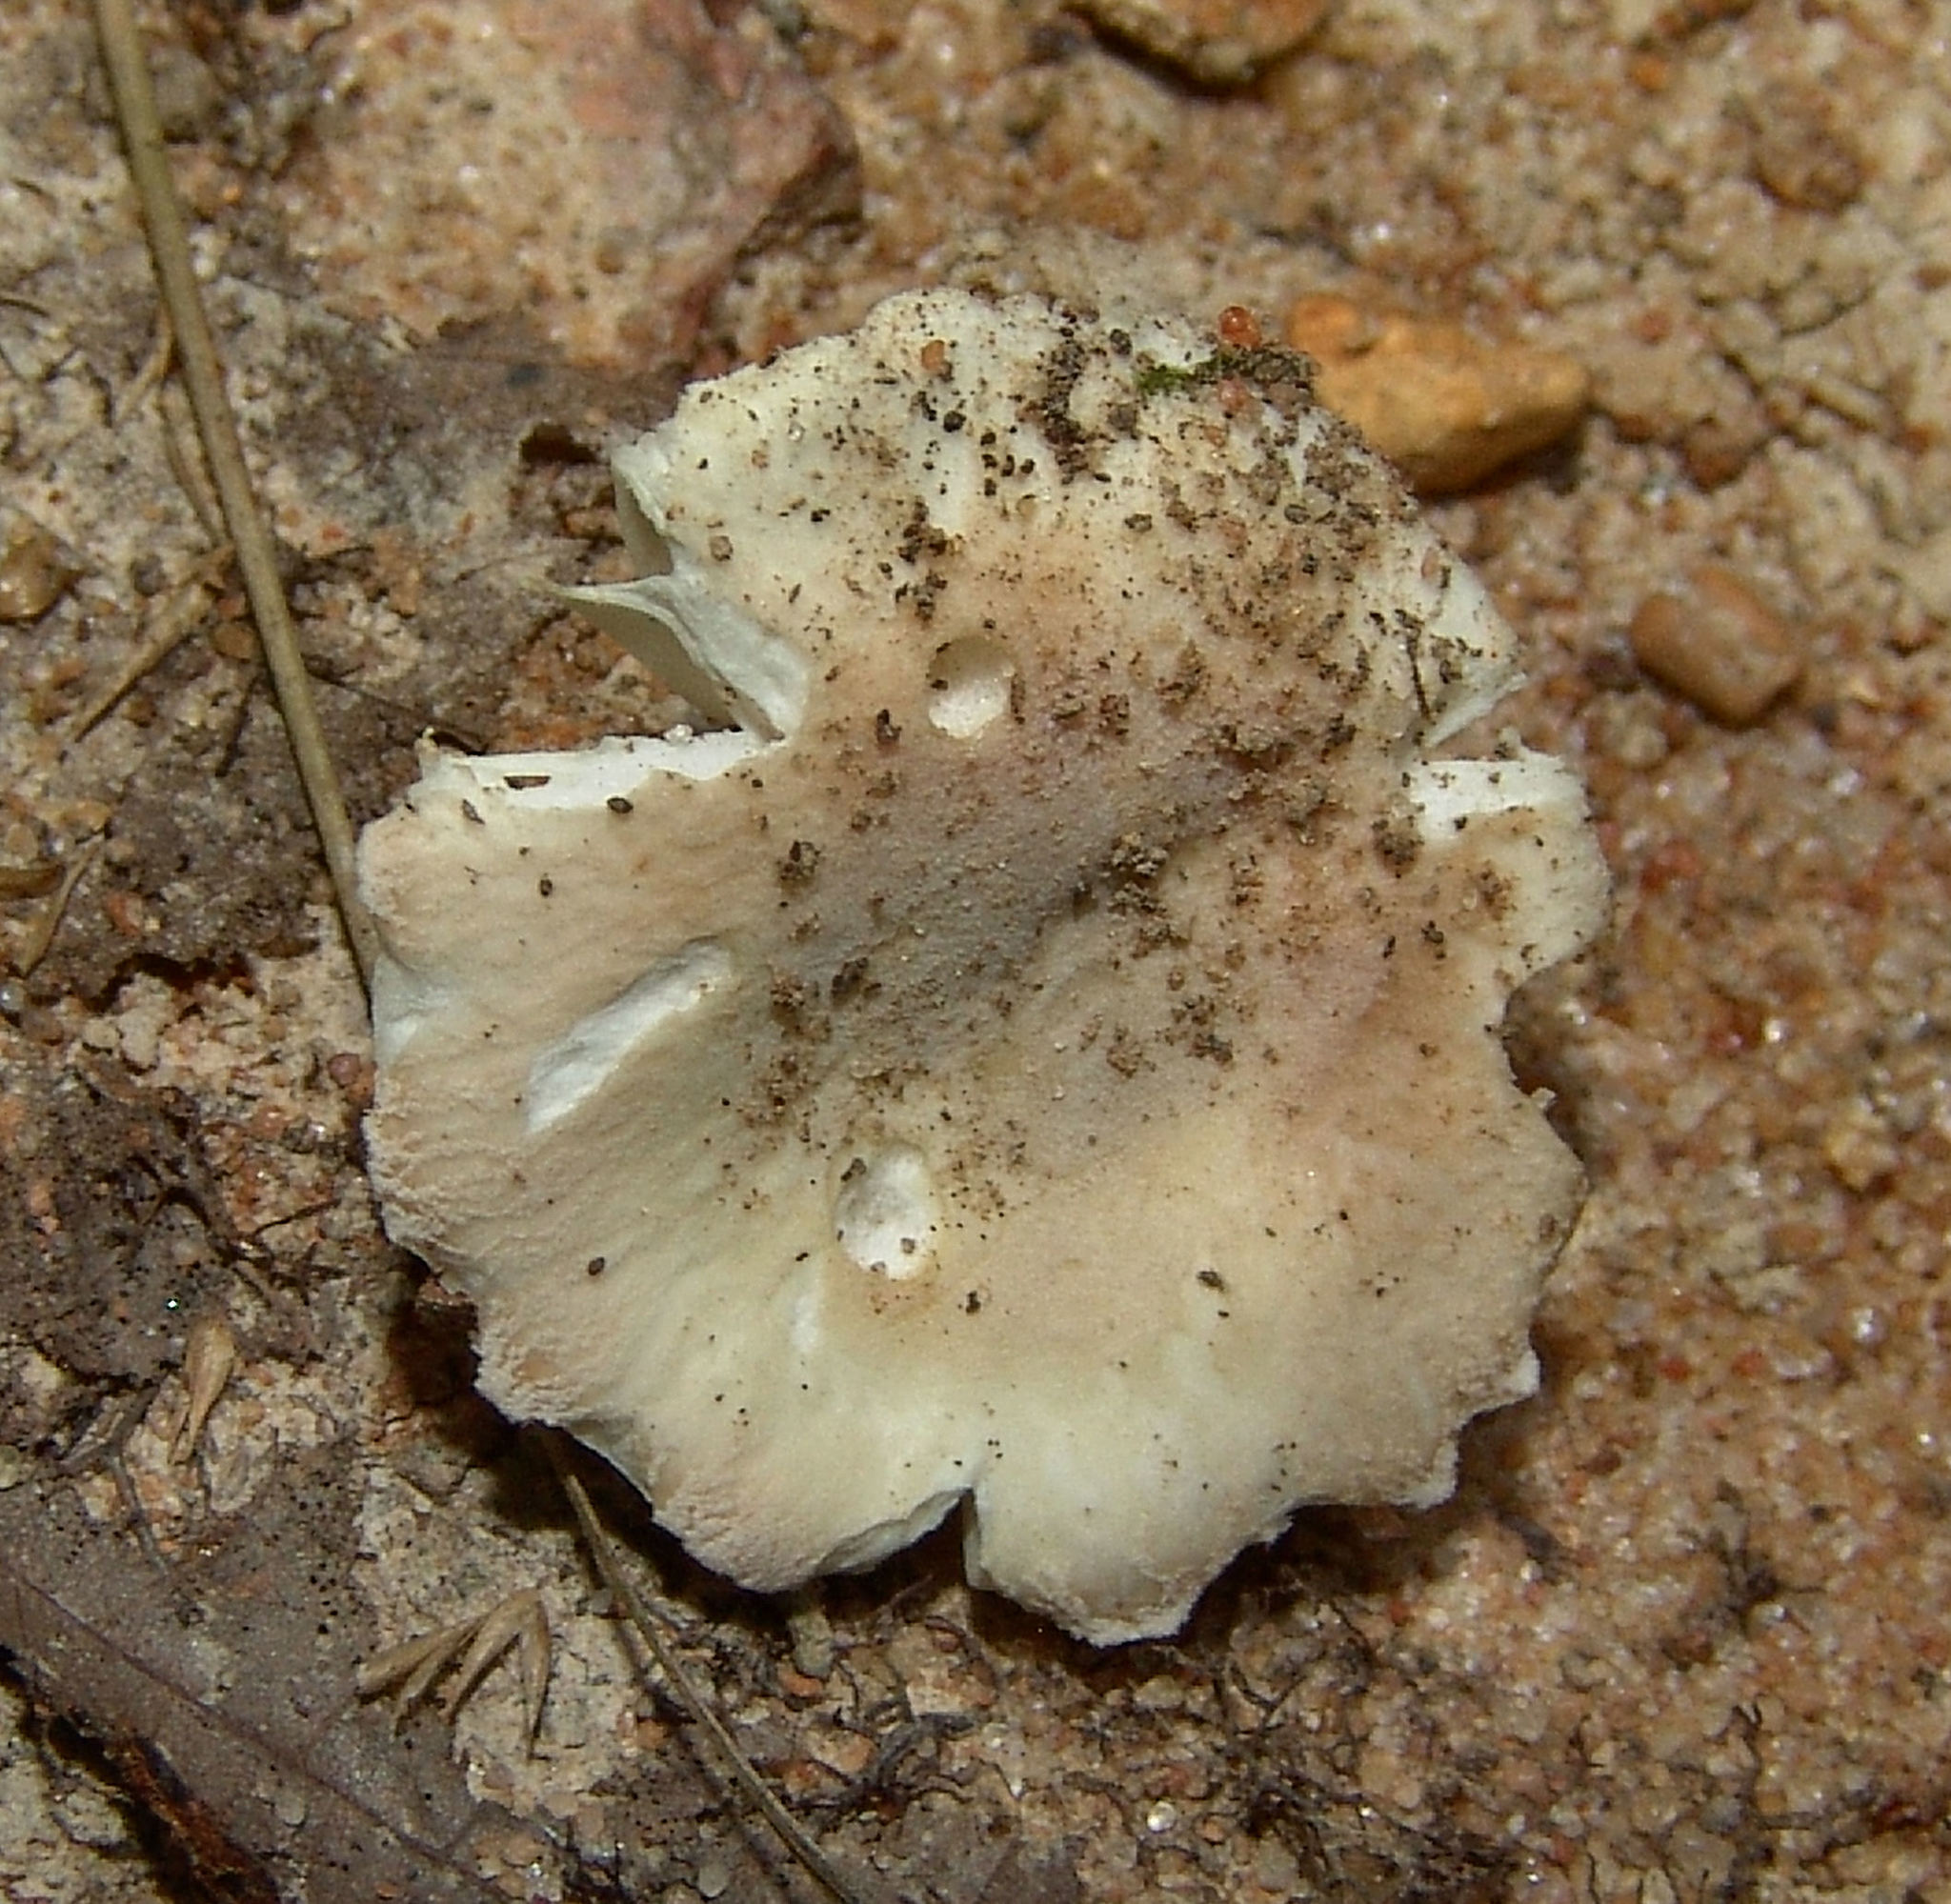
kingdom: Fungi
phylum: Basidiomycota
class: Agaricomycetes
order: Russulales
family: Russulaceae
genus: Russula
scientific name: Russula
